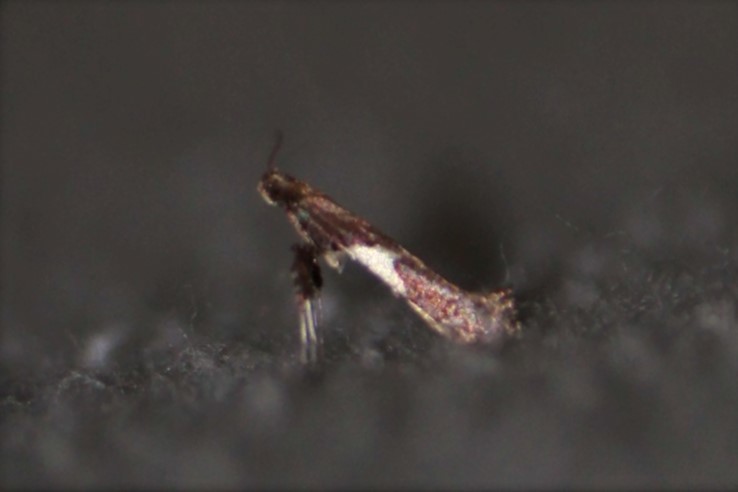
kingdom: Animalia
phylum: Arthropoda
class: Insecta
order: Lepidoptera
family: Gracillariidae
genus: Caloptilia
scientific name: Caloptilia stigmatella
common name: White-triangle slender
